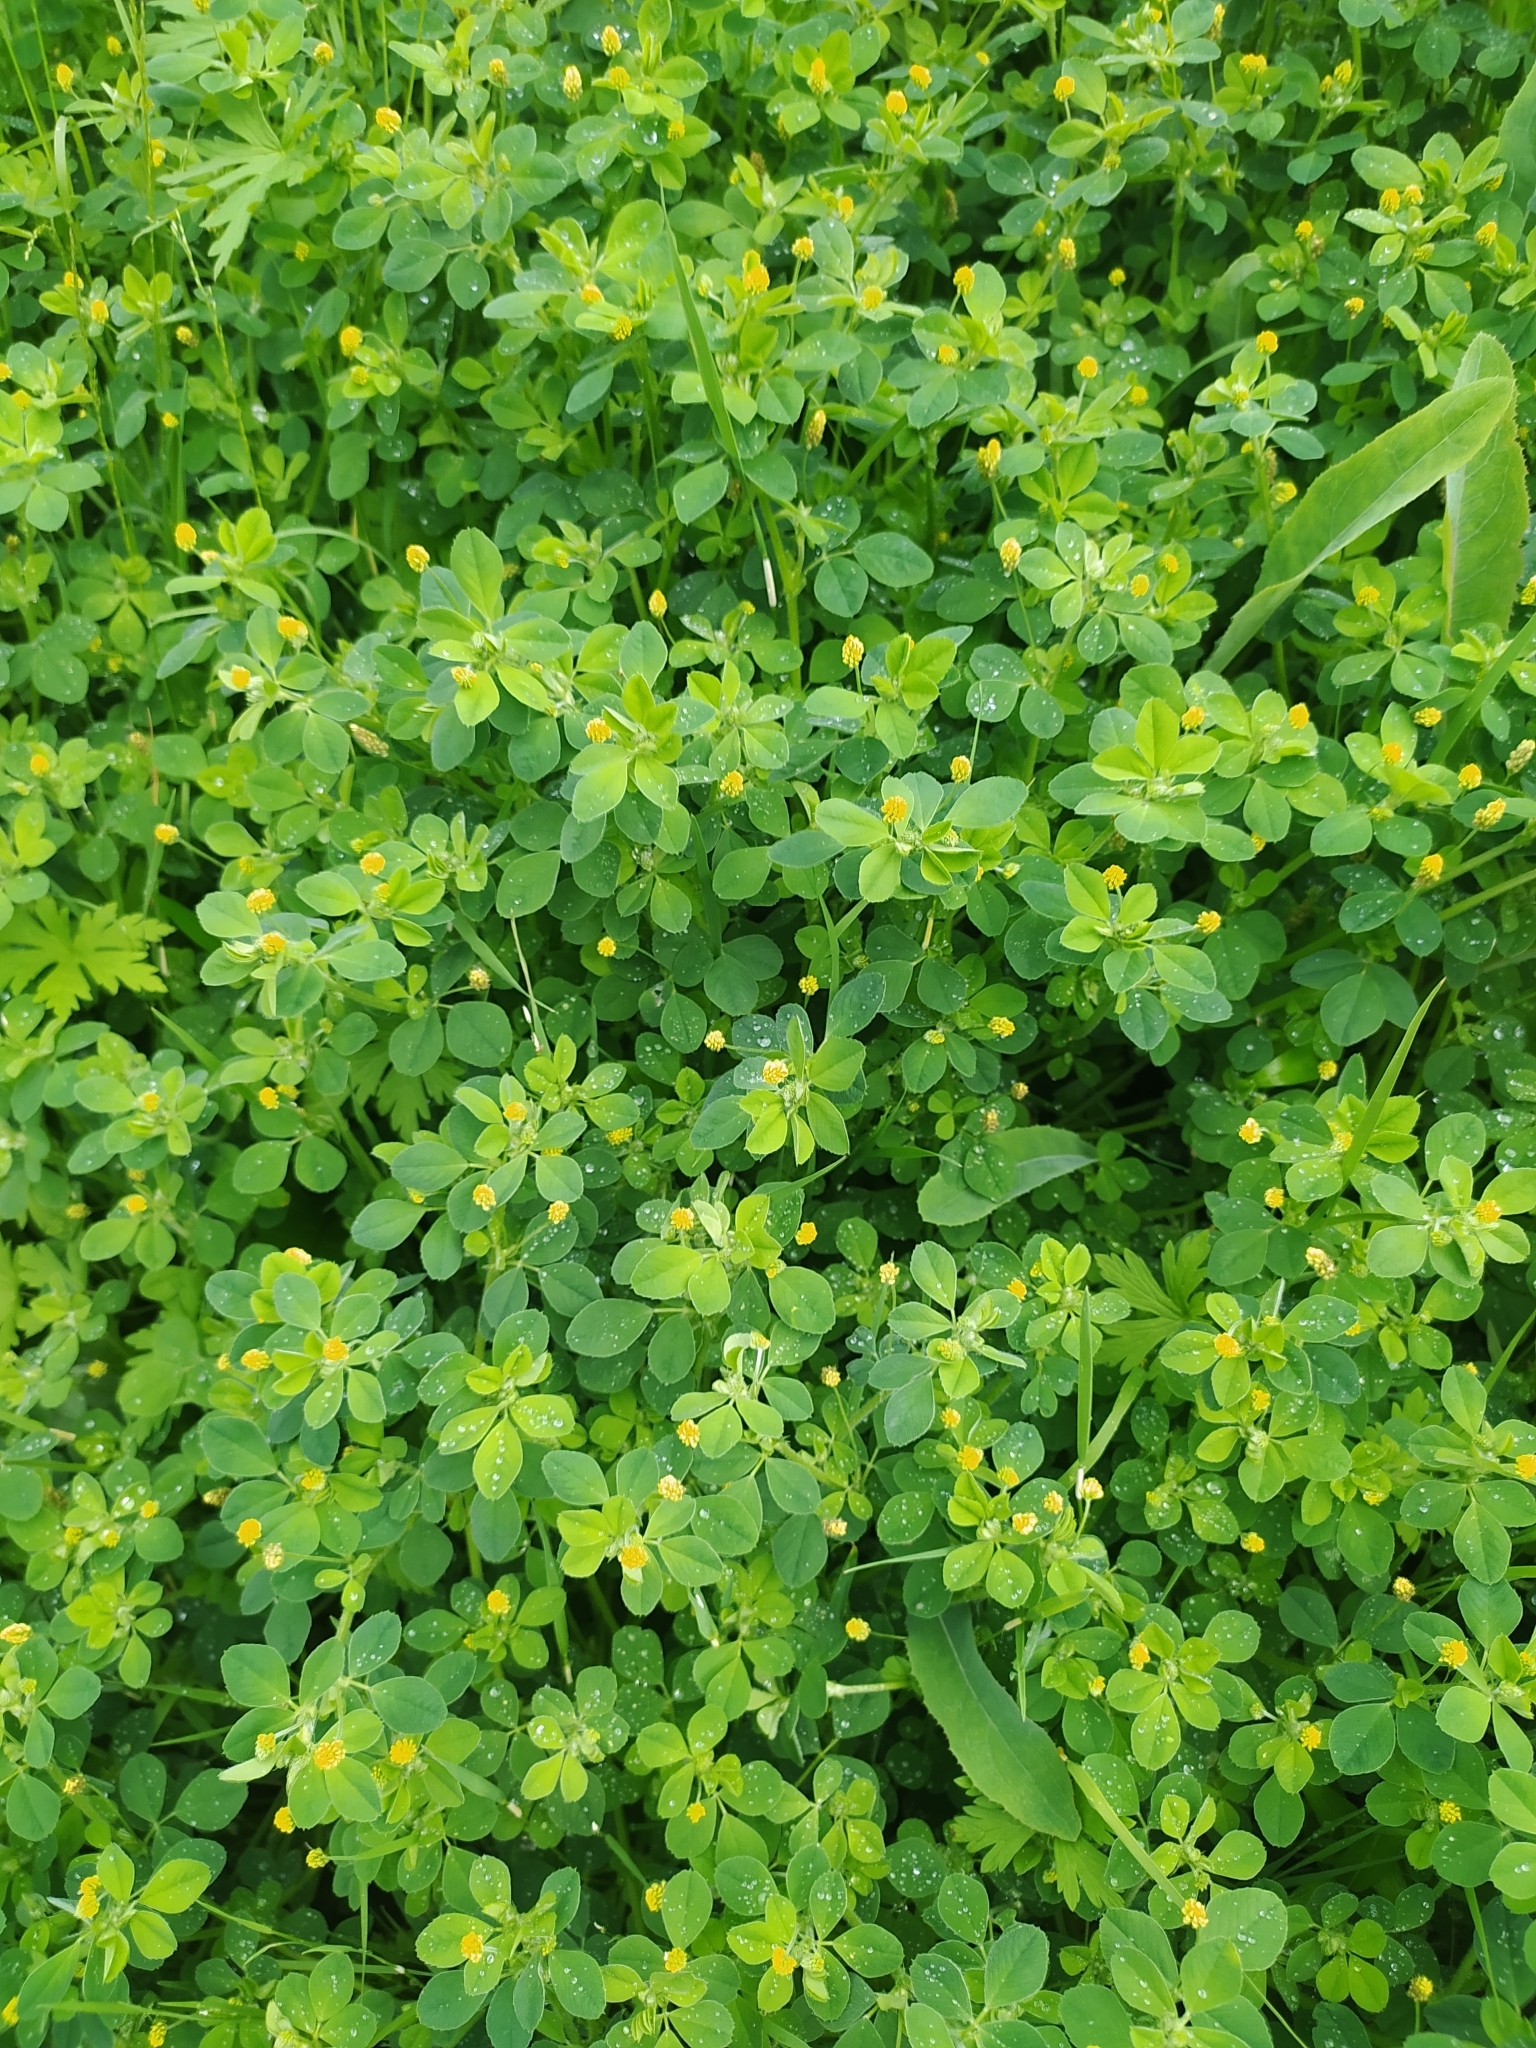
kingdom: Plantae
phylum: Tracheophyta
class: Magnoliopsida
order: Fabales
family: Fabaceae
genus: Trifolium
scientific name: Trifolium dubium
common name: Suckling clover
